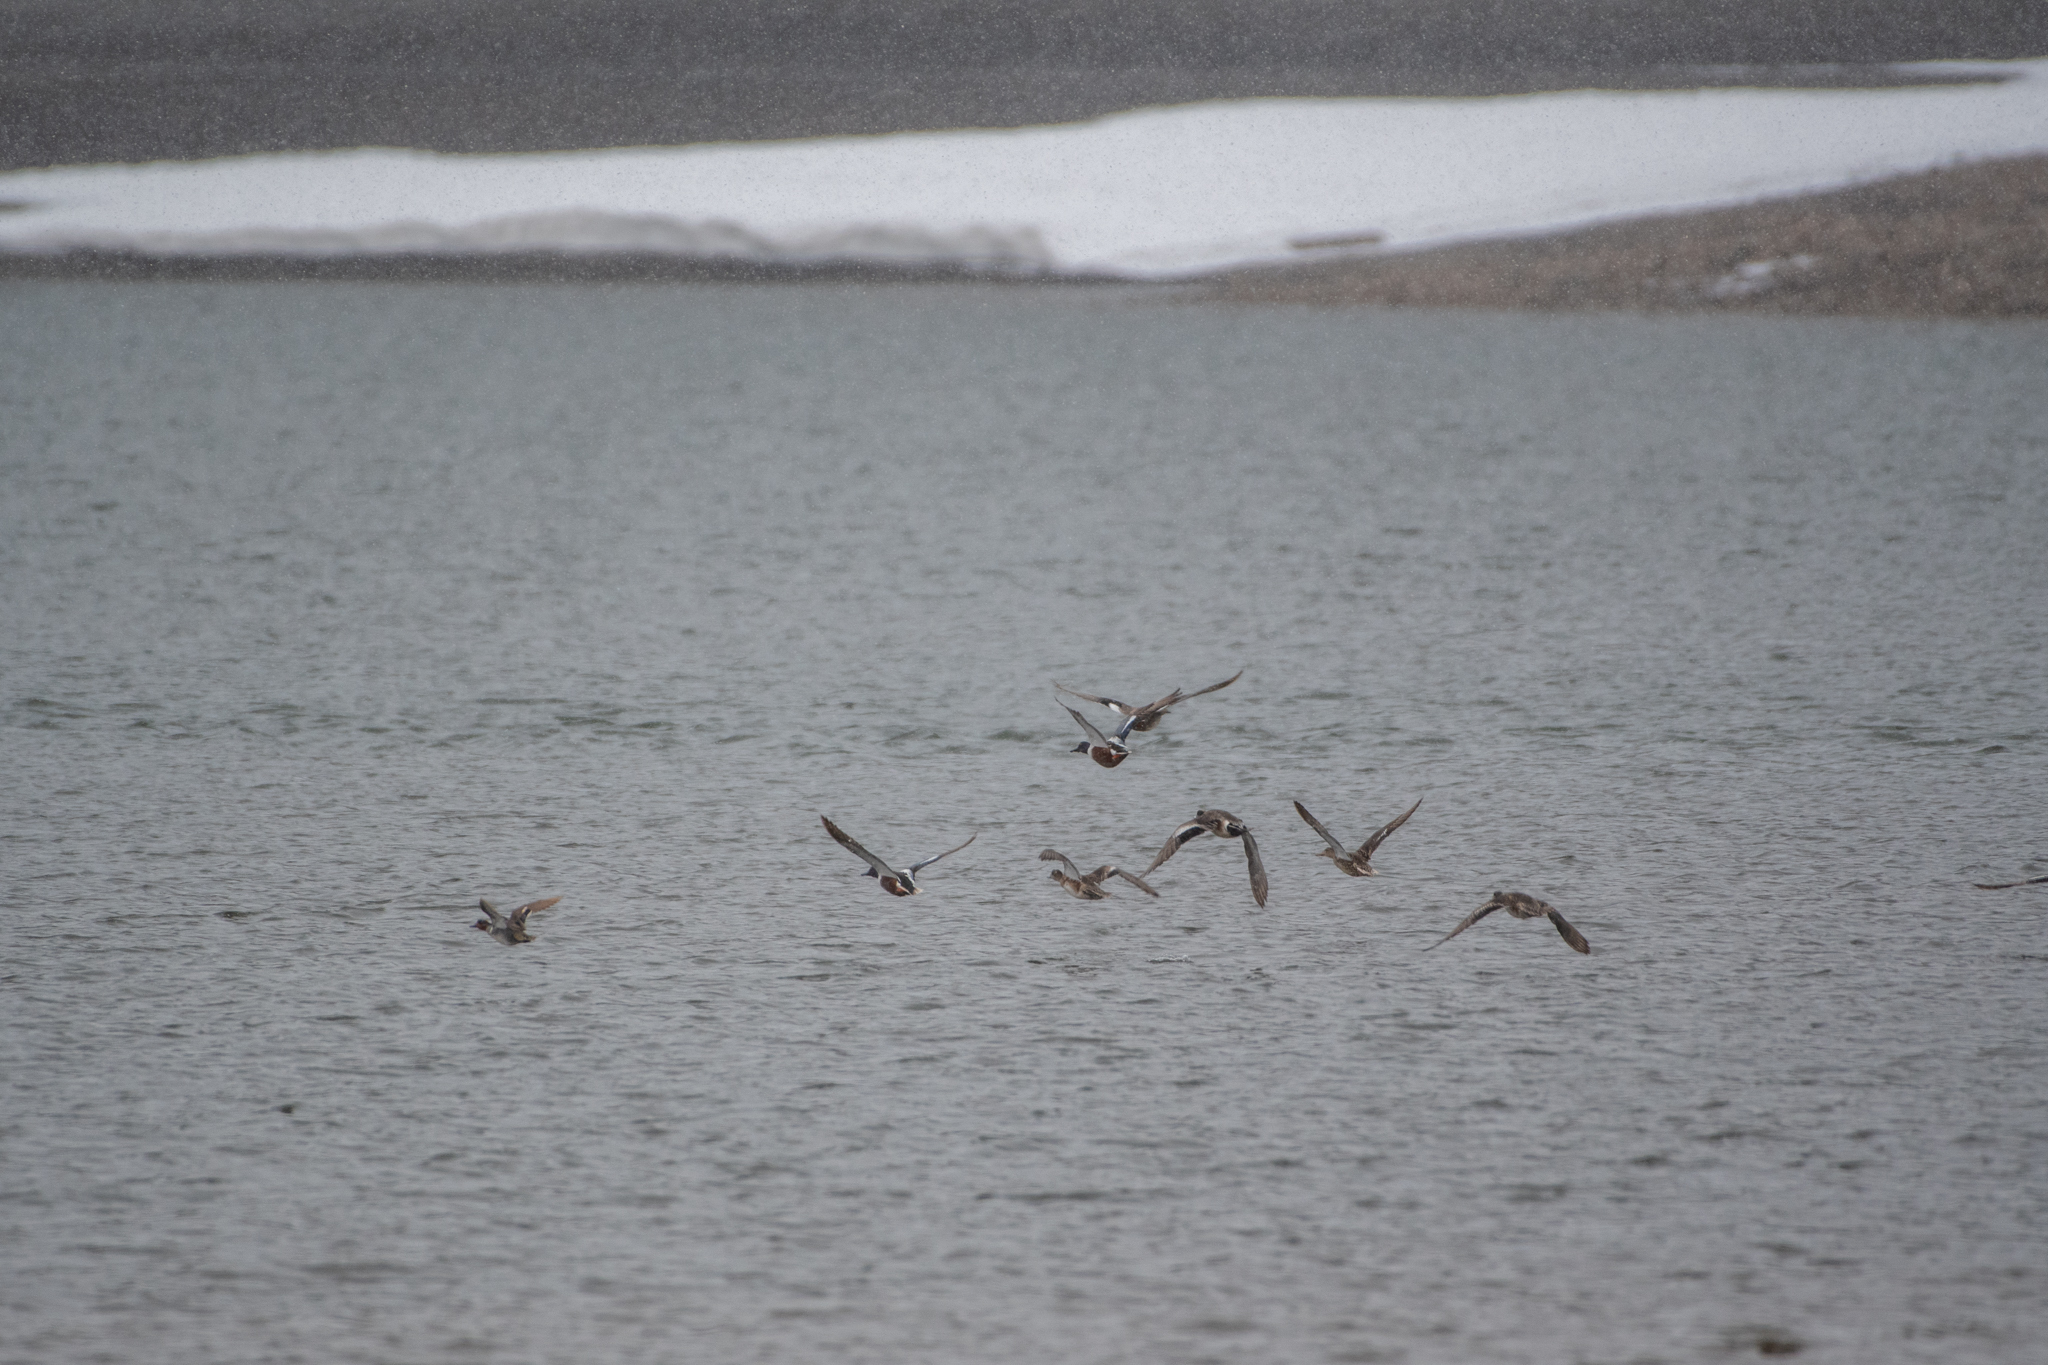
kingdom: Animalia
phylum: Chordata
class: Aves
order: Anseriformes
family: Anatidae
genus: Spatula
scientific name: Spatula clypeata
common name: Northern shoveler
